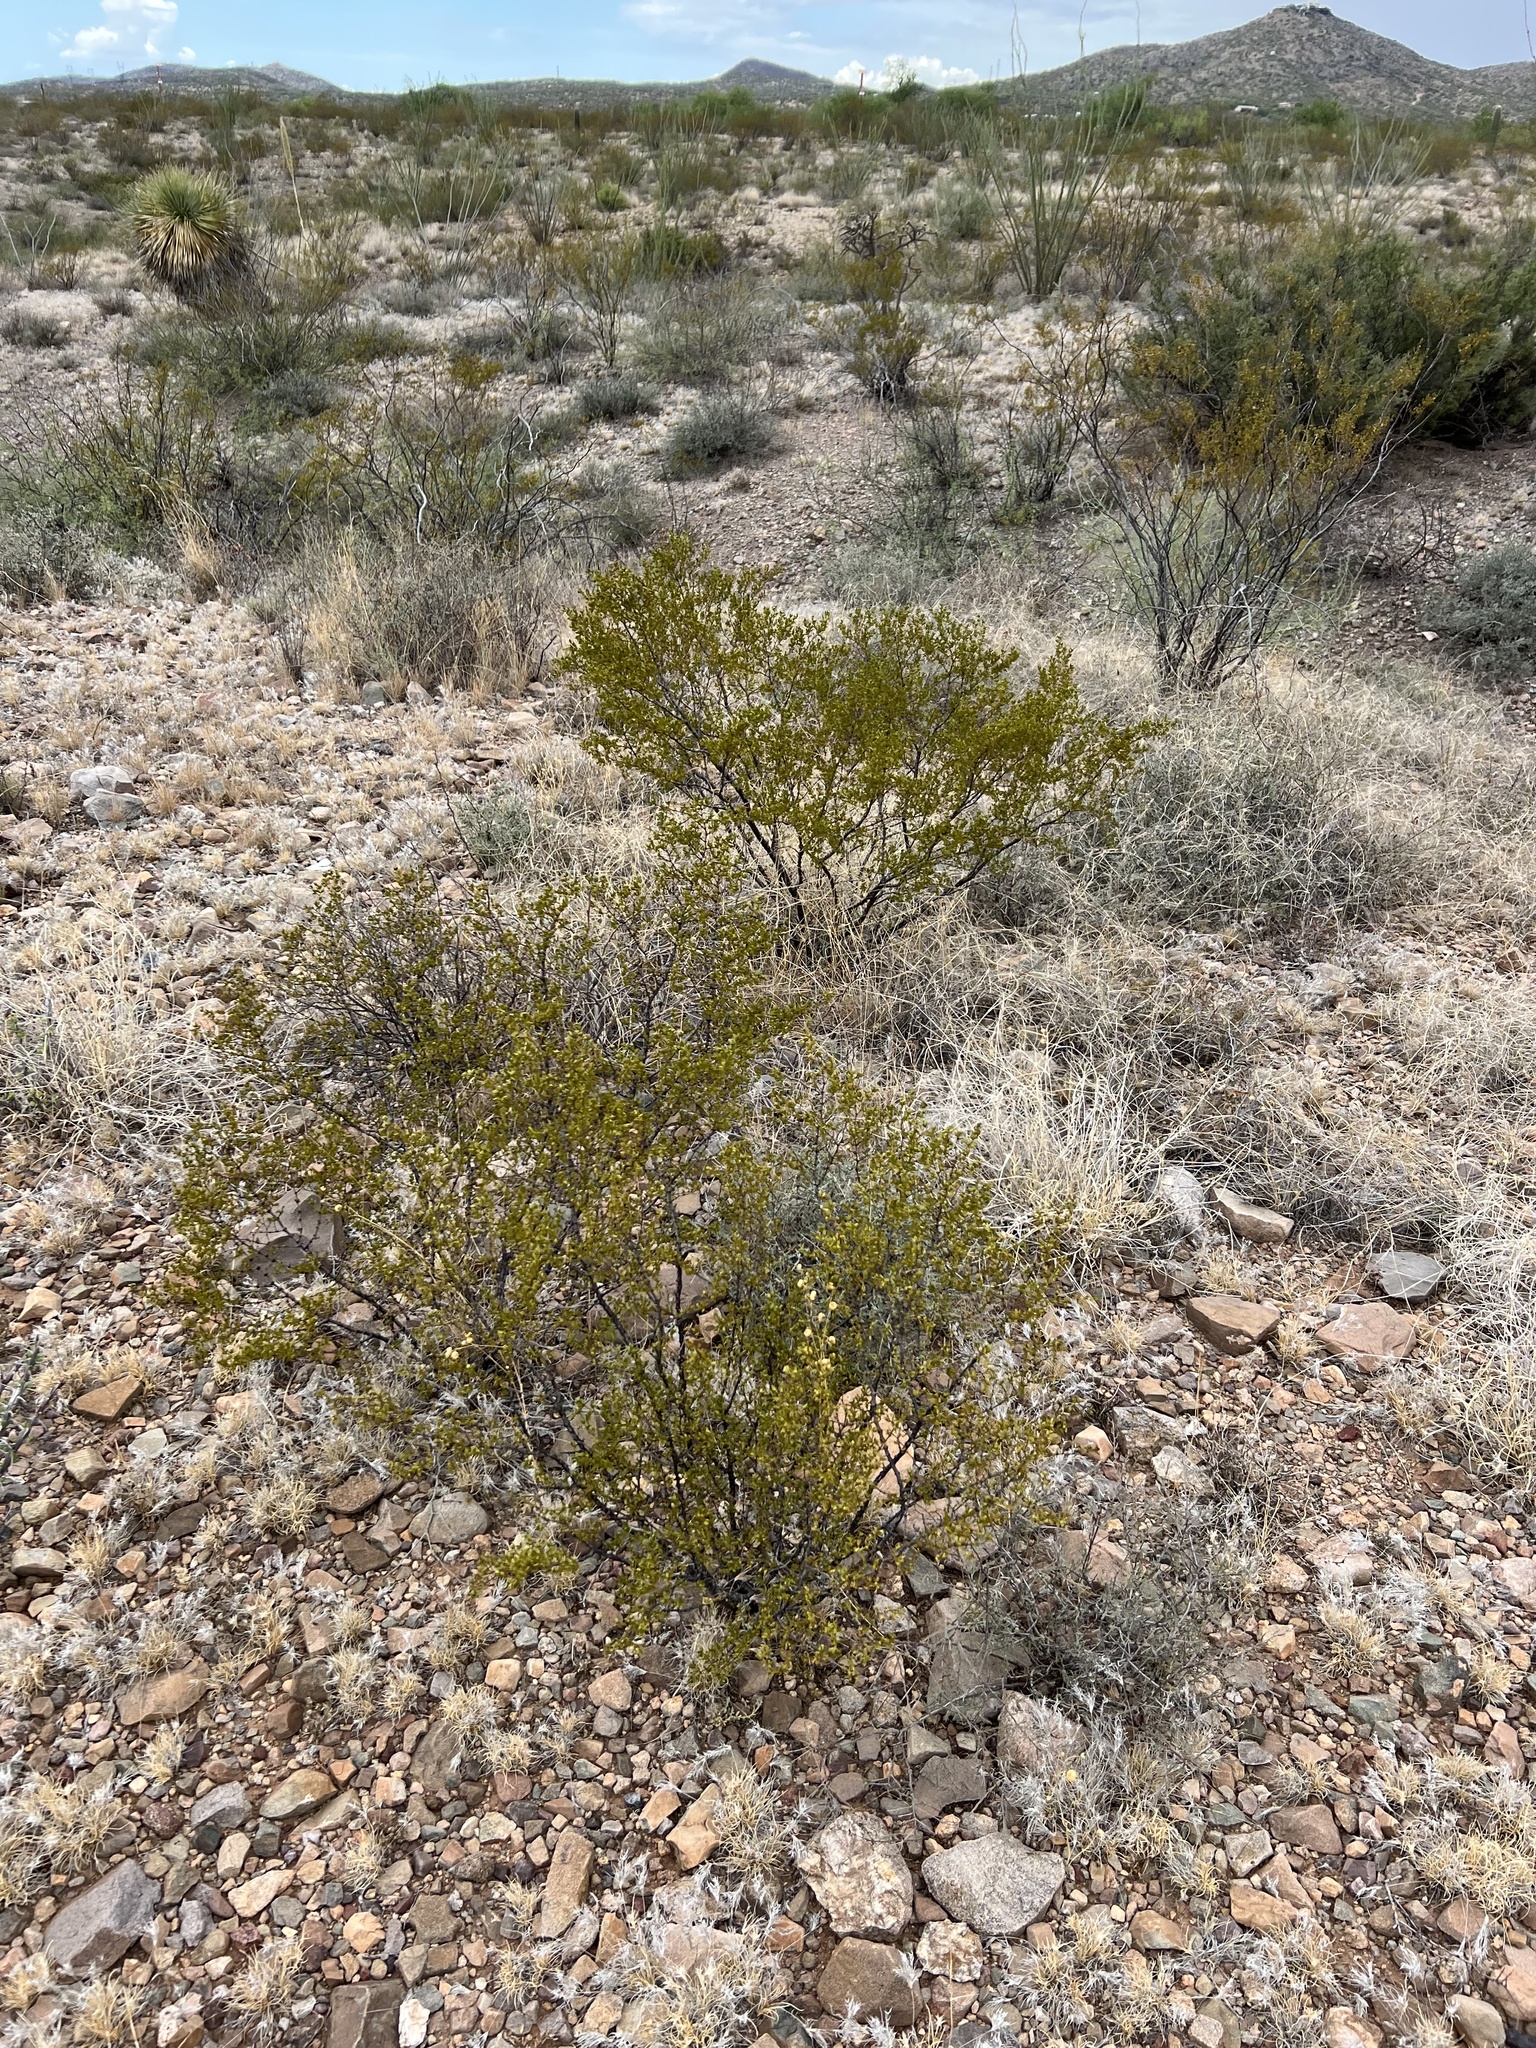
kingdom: Plantae
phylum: Tracheophyta
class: Magnoliopsida
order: Zygophyllales
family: Zygophyllaceae
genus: Larrea
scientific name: Larrea tridentata
